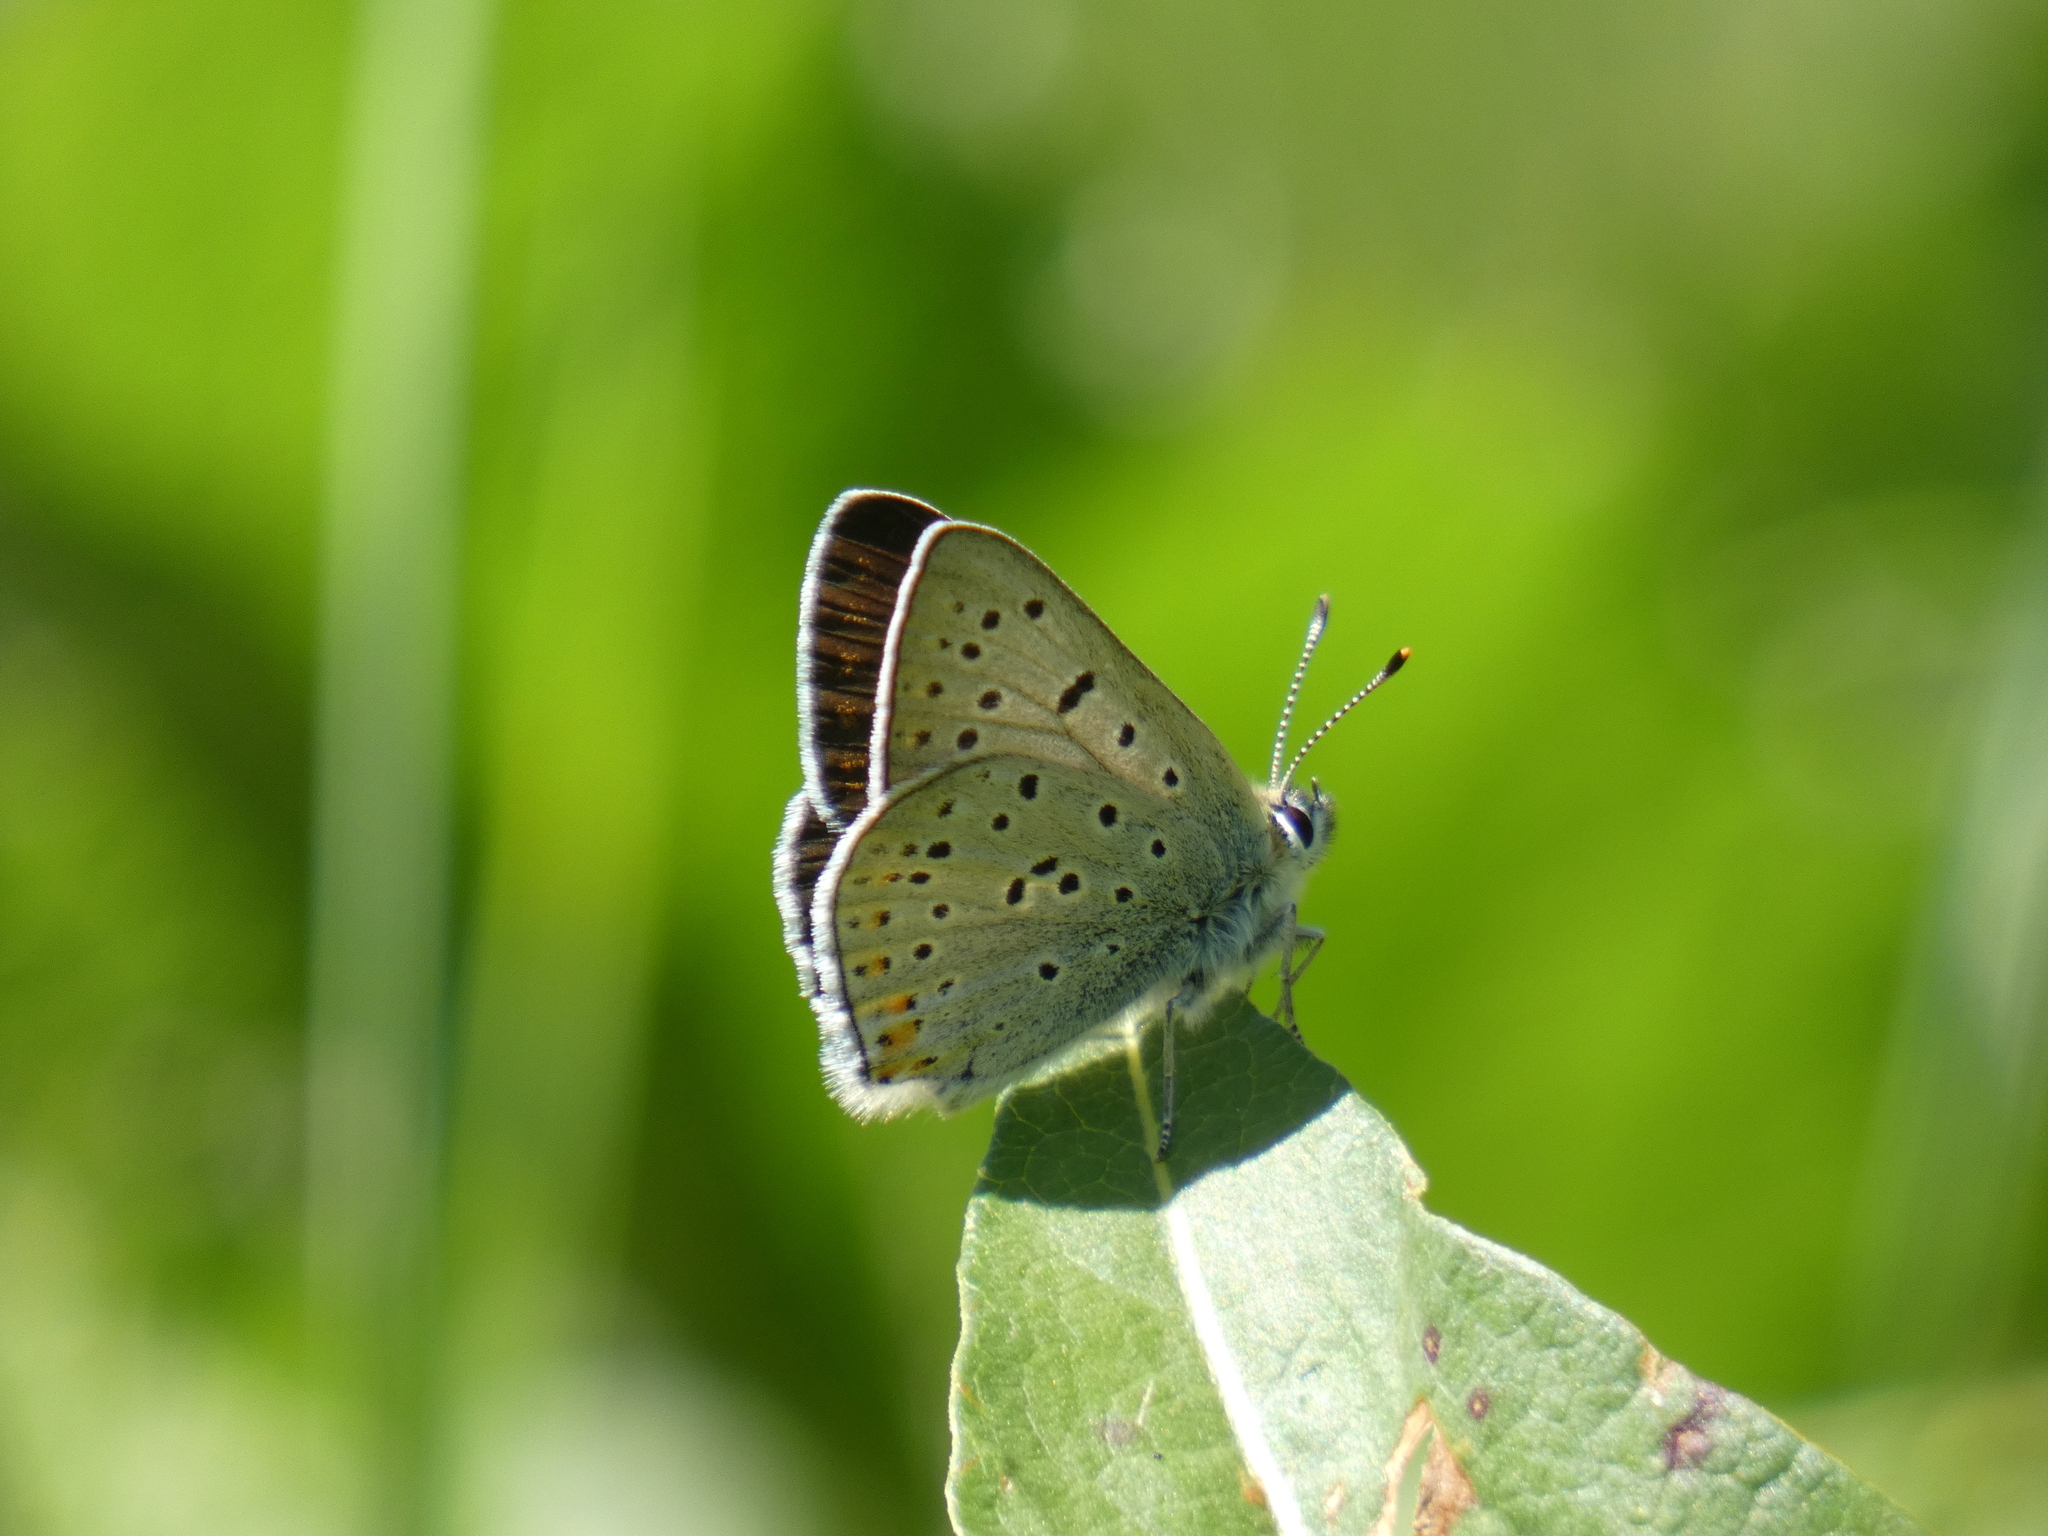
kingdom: Animalia
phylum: Arthropoda
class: Insecta
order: Lepidoptera
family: Lycaenidae
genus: Loweia
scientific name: Loweia tityrus
